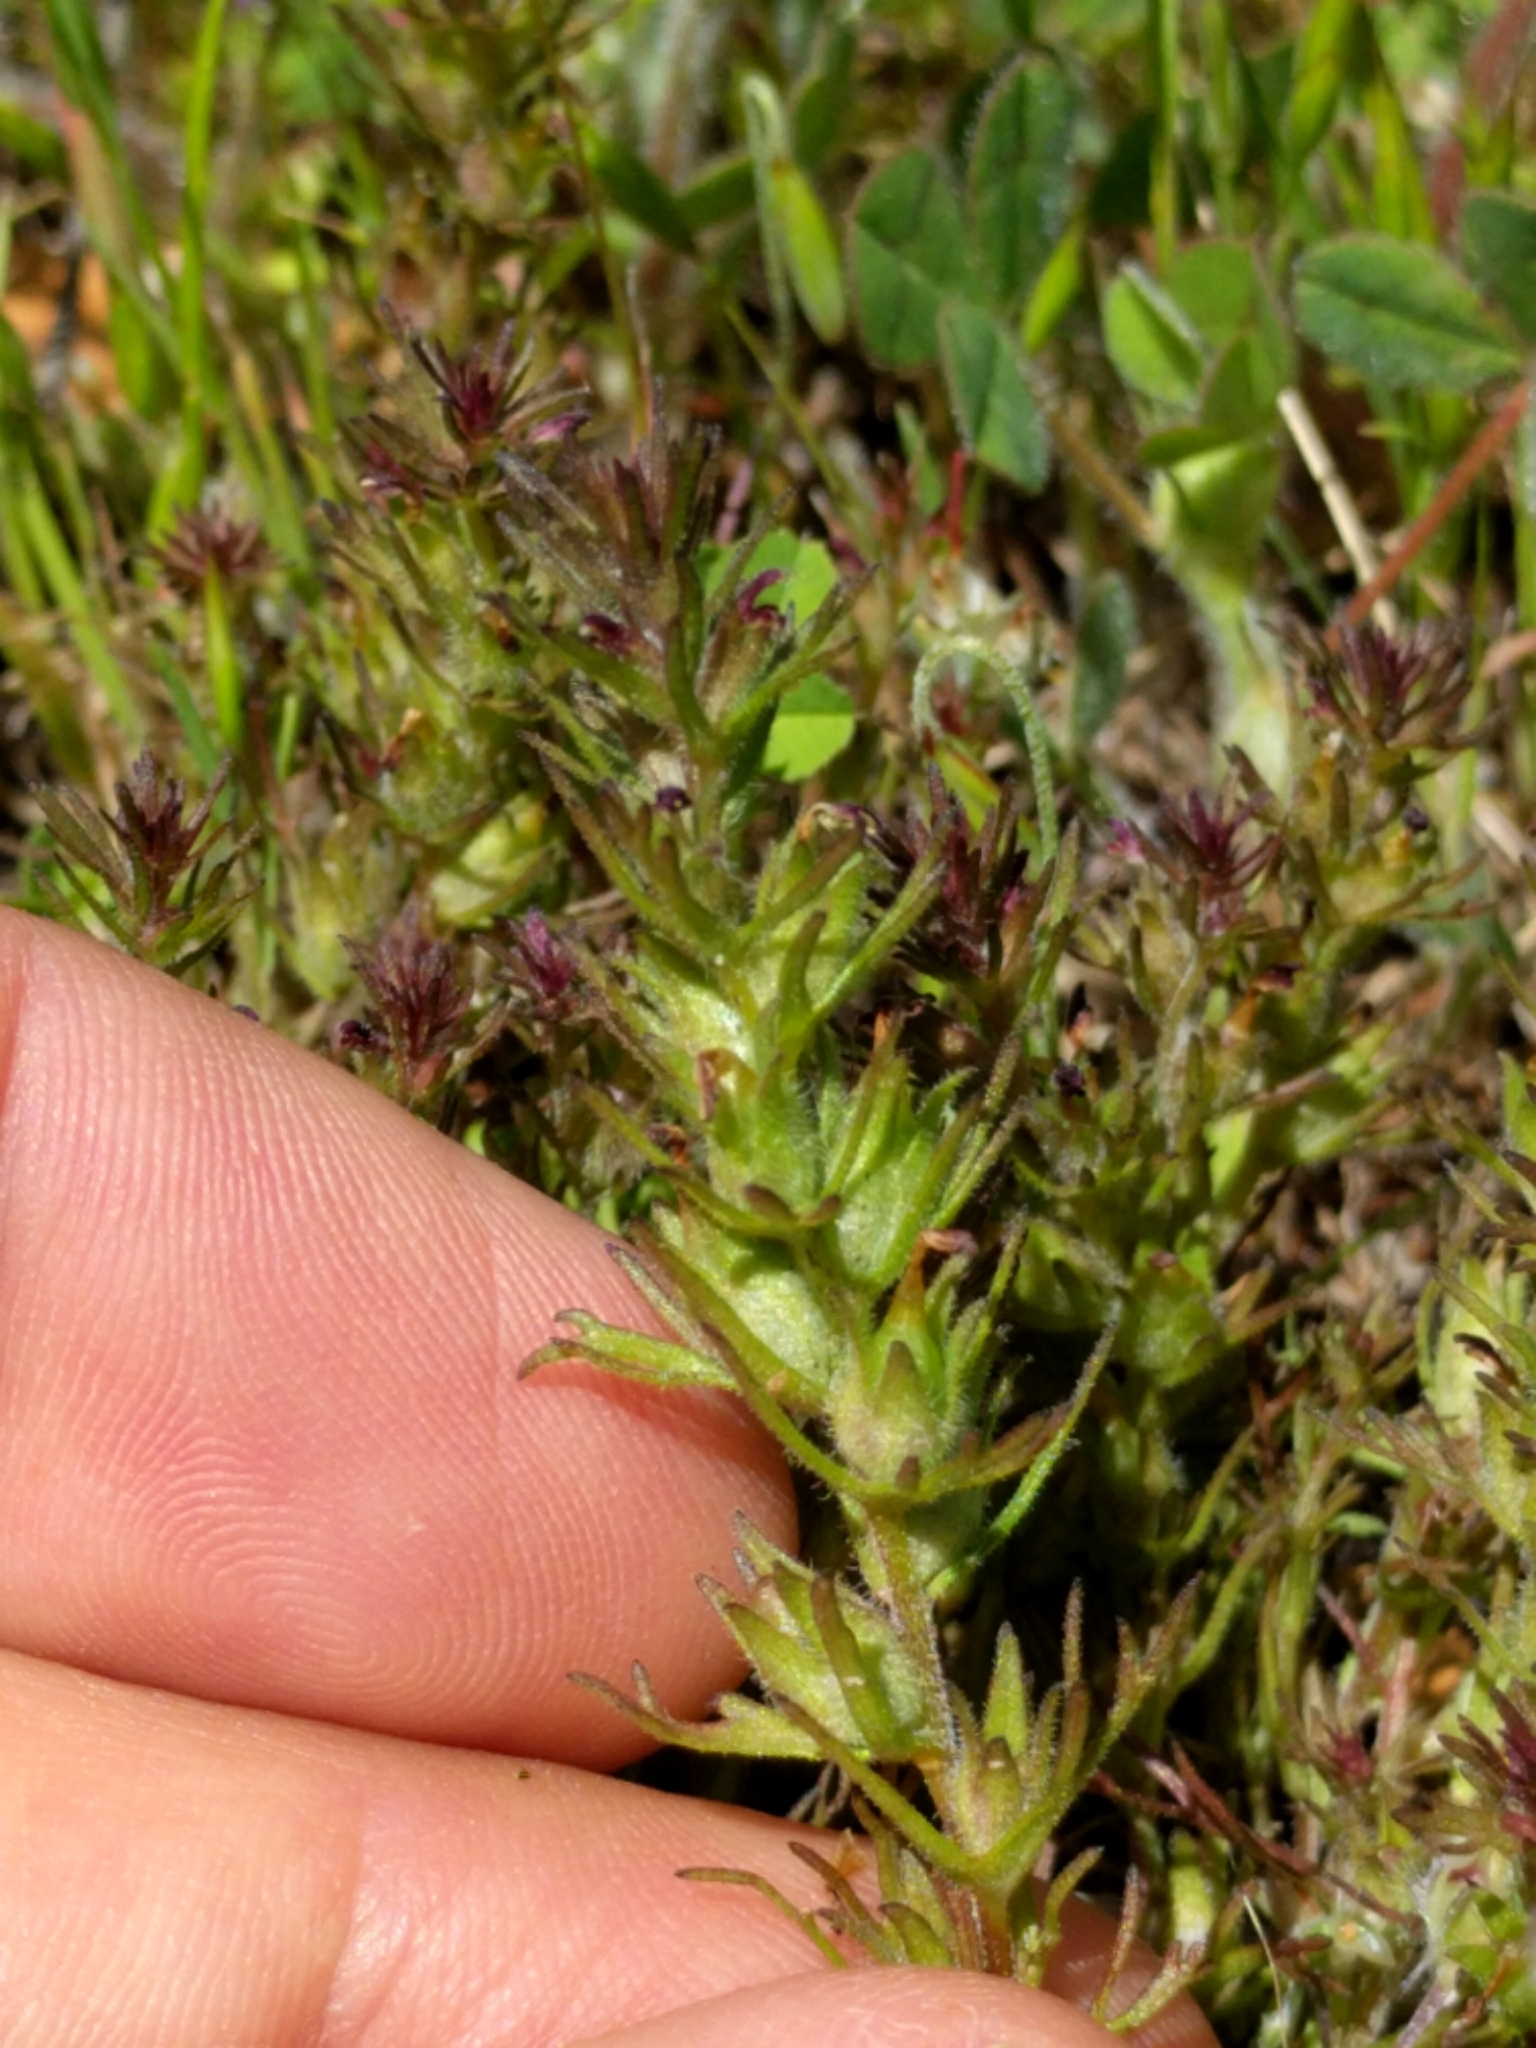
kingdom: Plantae
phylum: Tracheophyta
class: Magnoliopsida
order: Lamiales
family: Orobanchaceae
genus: Triphysaria
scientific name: Triphysaria pusilla
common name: Dwarf false owl-clover
